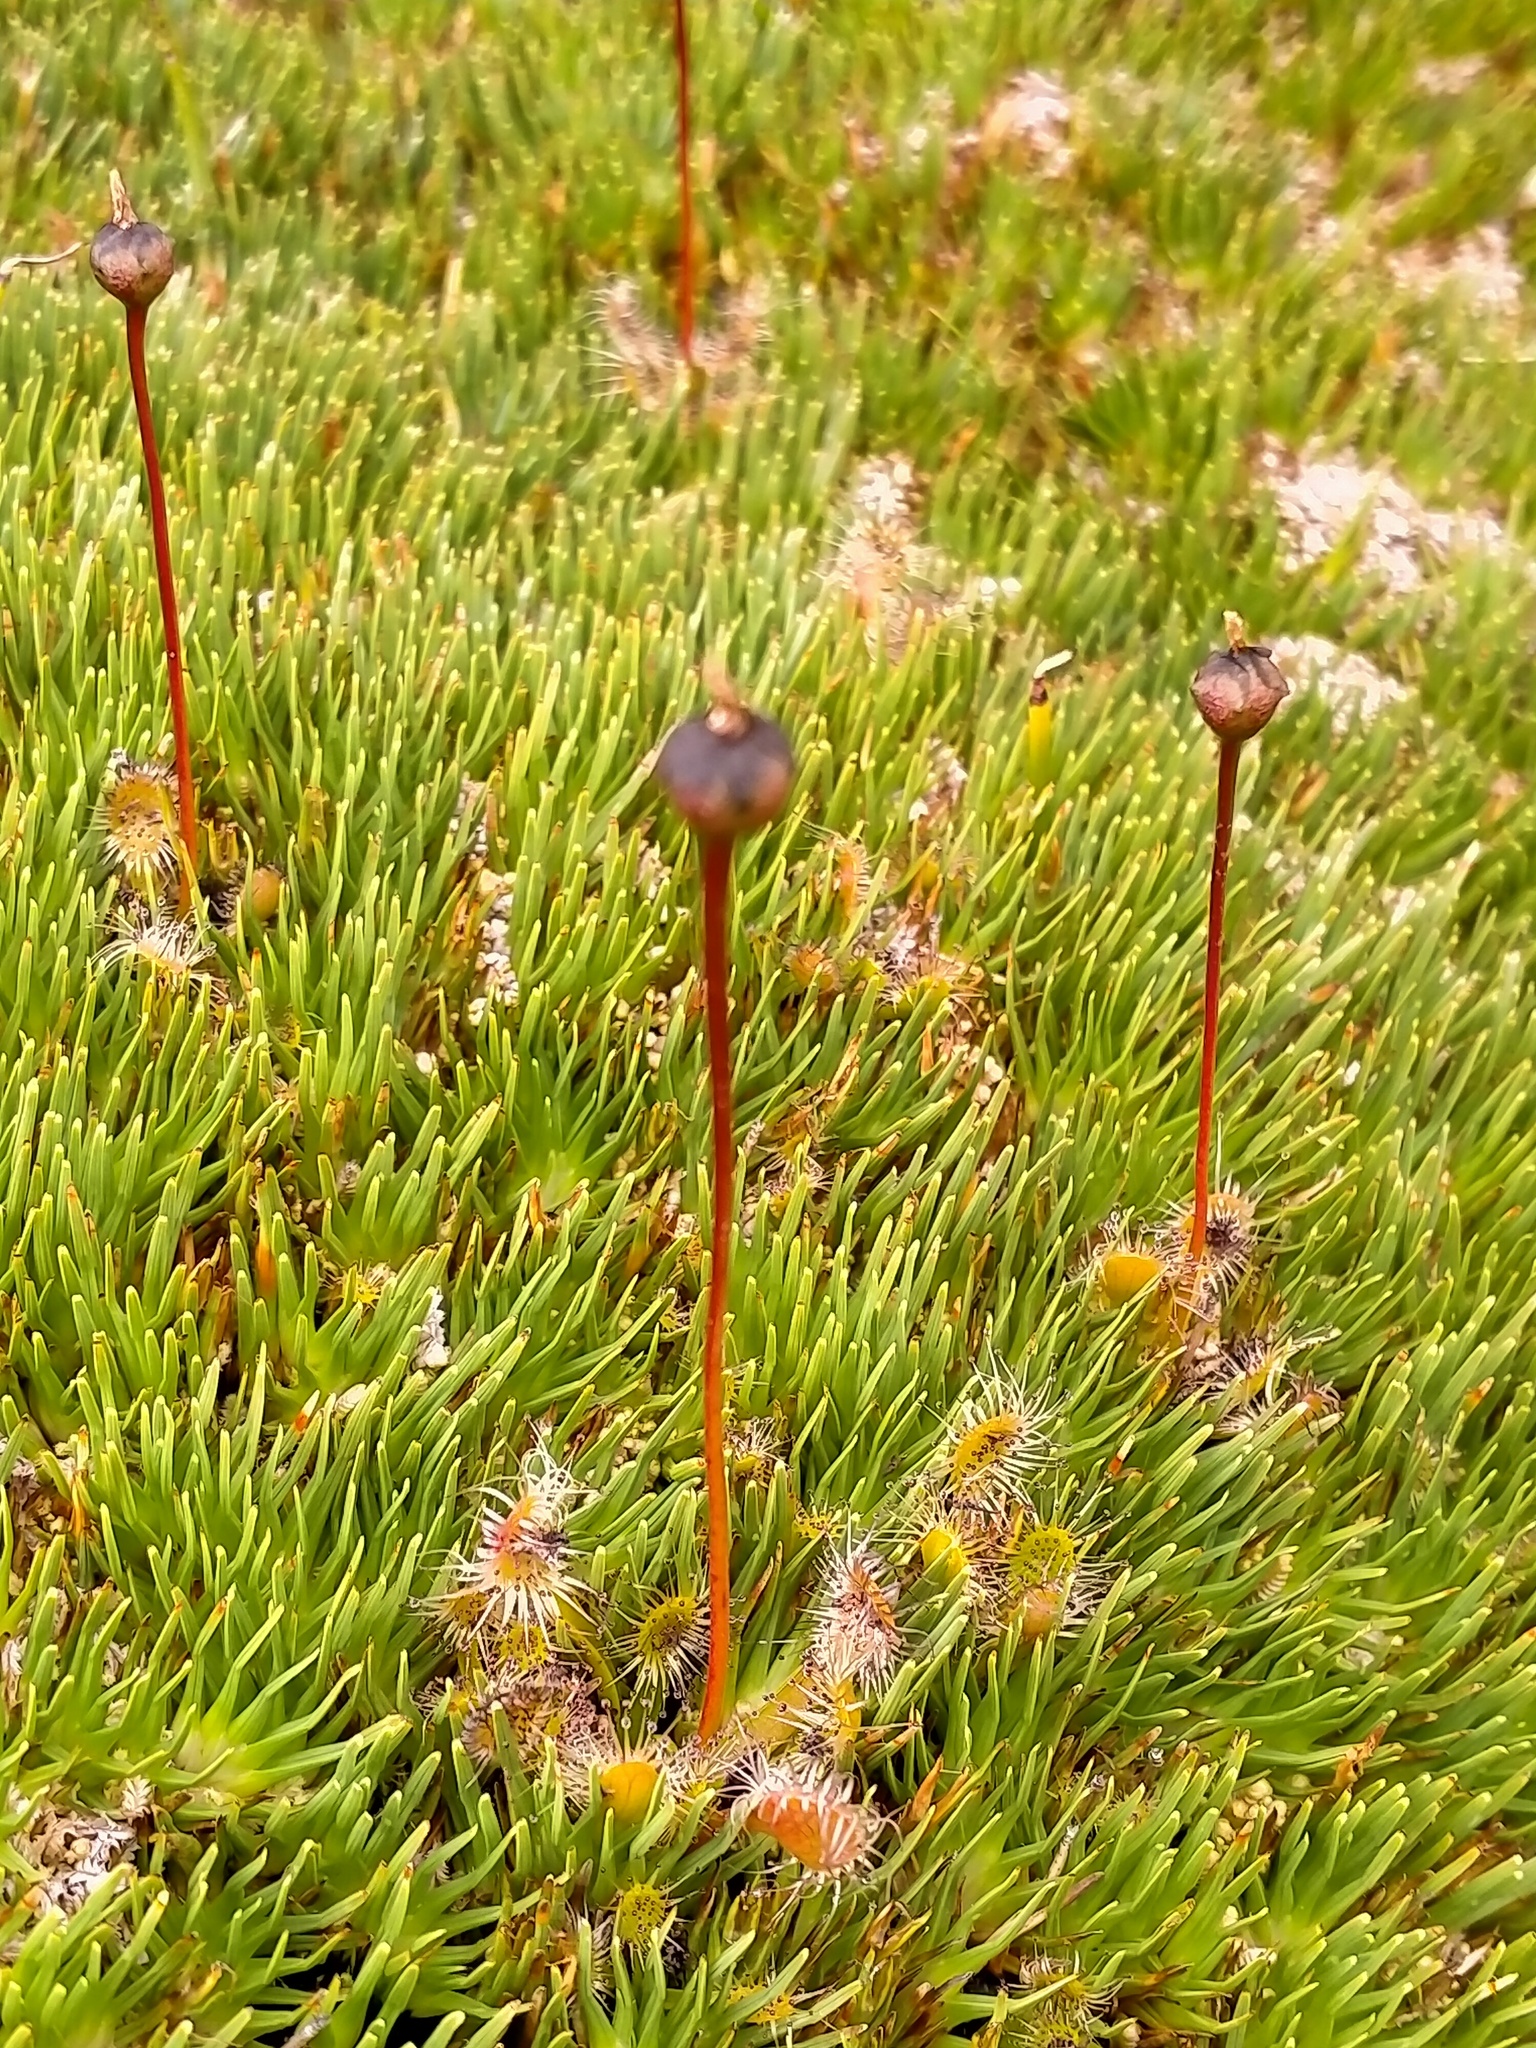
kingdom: Plantae
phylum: Tracheophyta
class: Magnoliopsida
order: Caryophyllales
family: Droseraceae
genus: Drosera
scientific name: Drosera stenopetala
